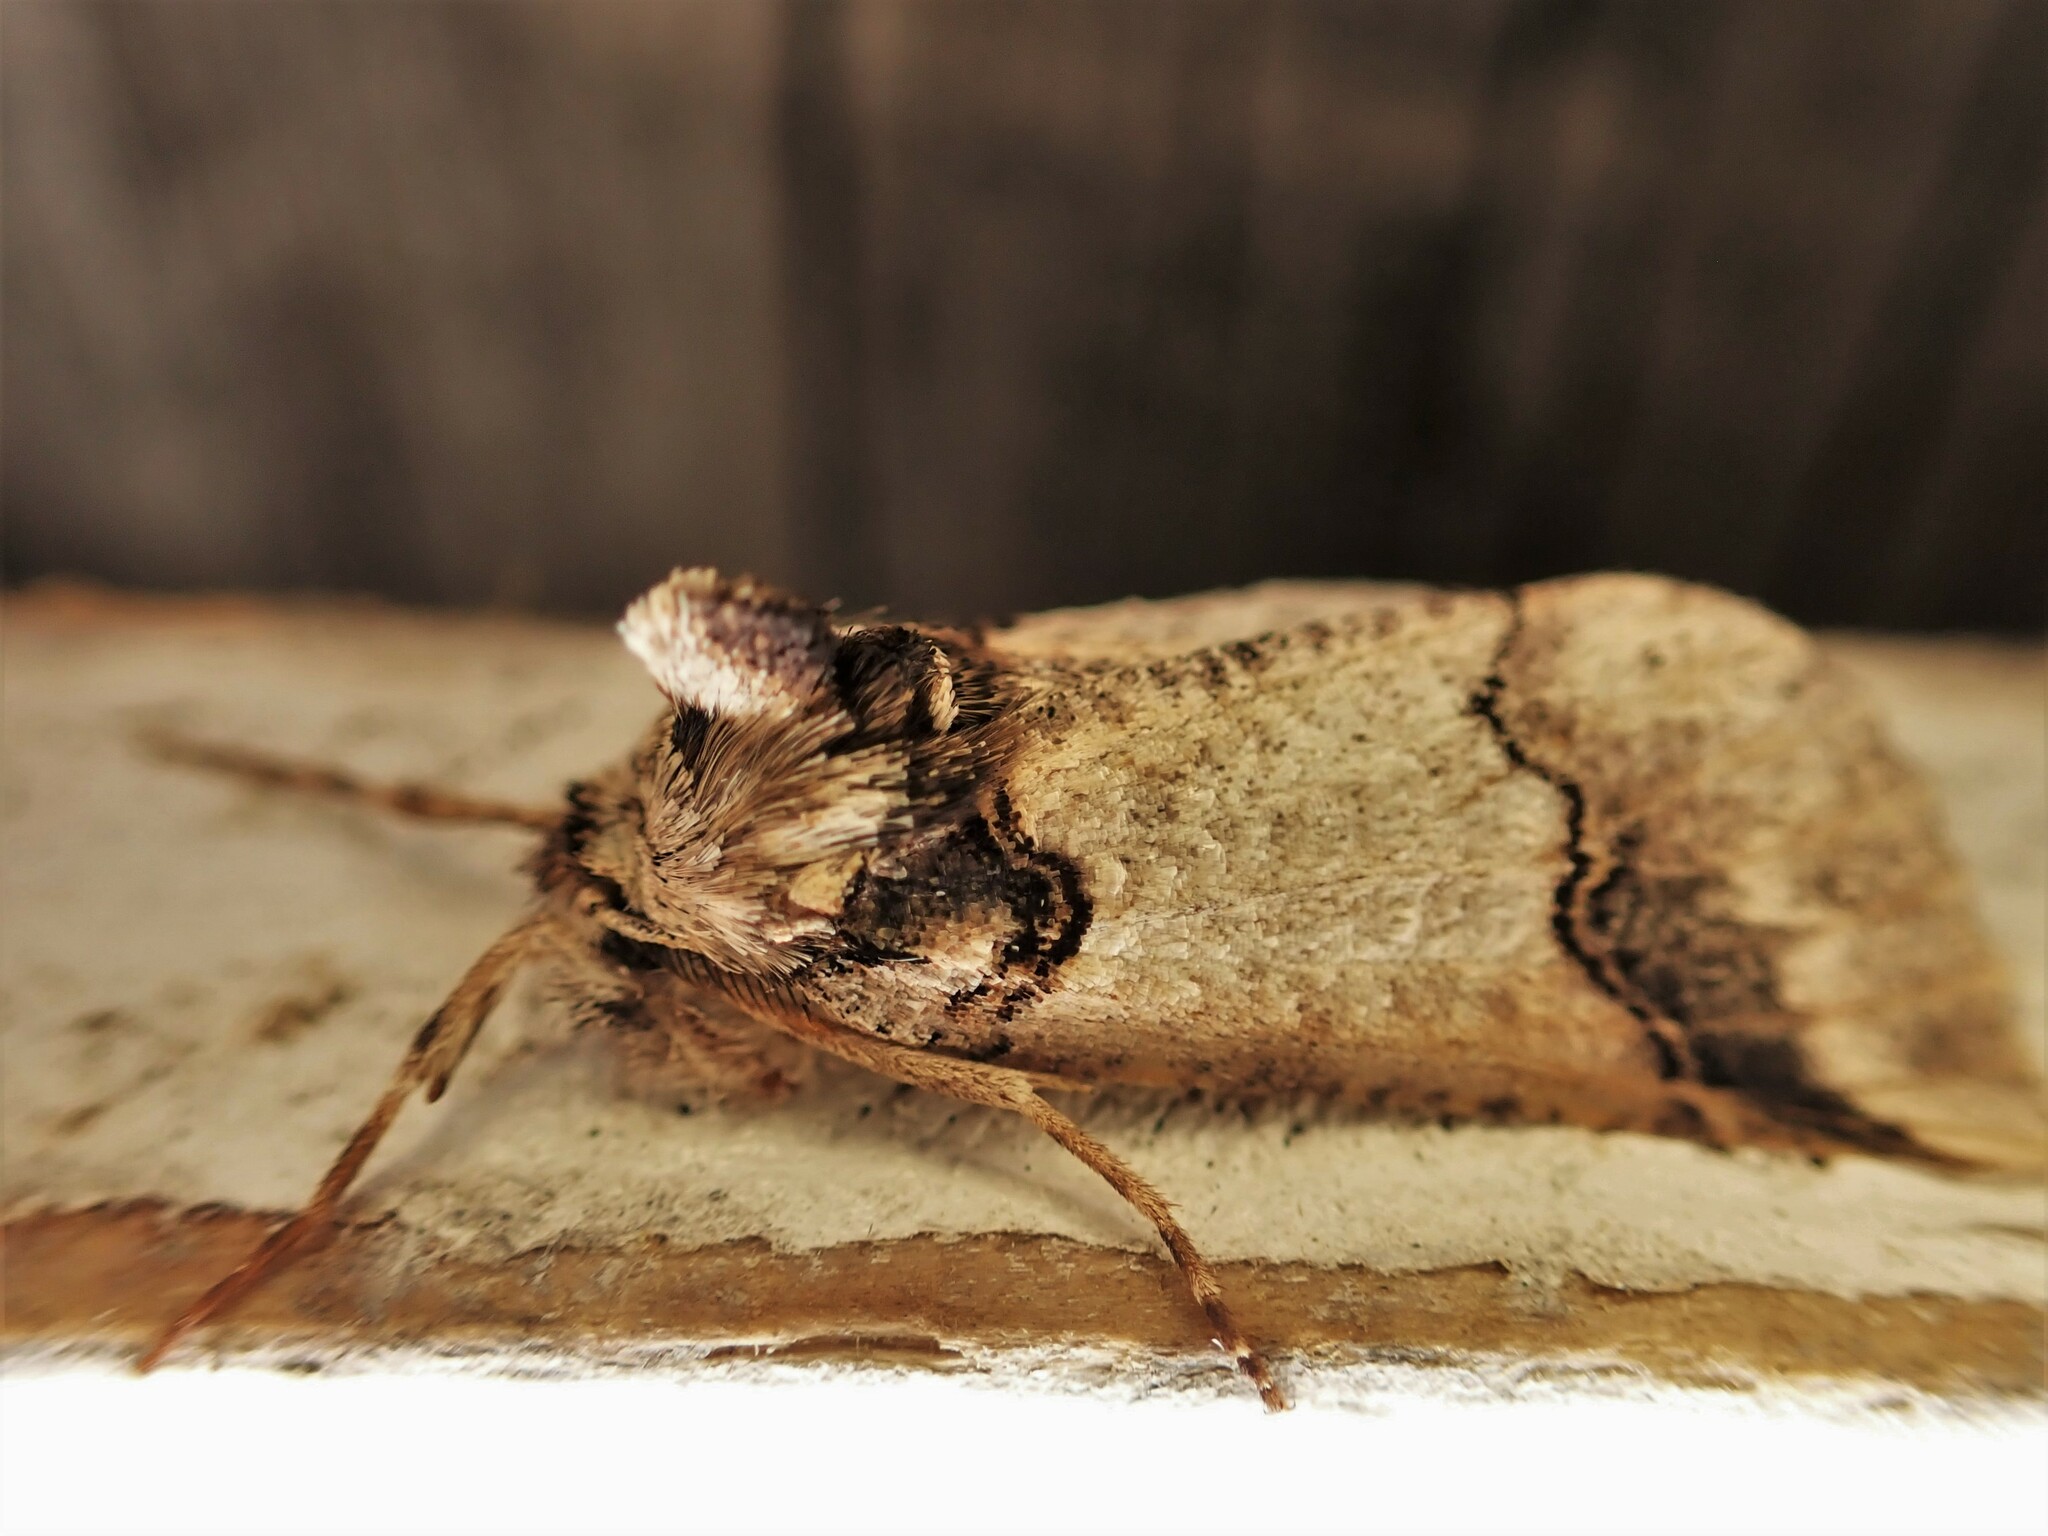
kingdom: Animalia
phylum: Arthropoda
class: Insecta
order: Lepidoptera
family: Geometridae
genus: Declana
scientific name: Declana
